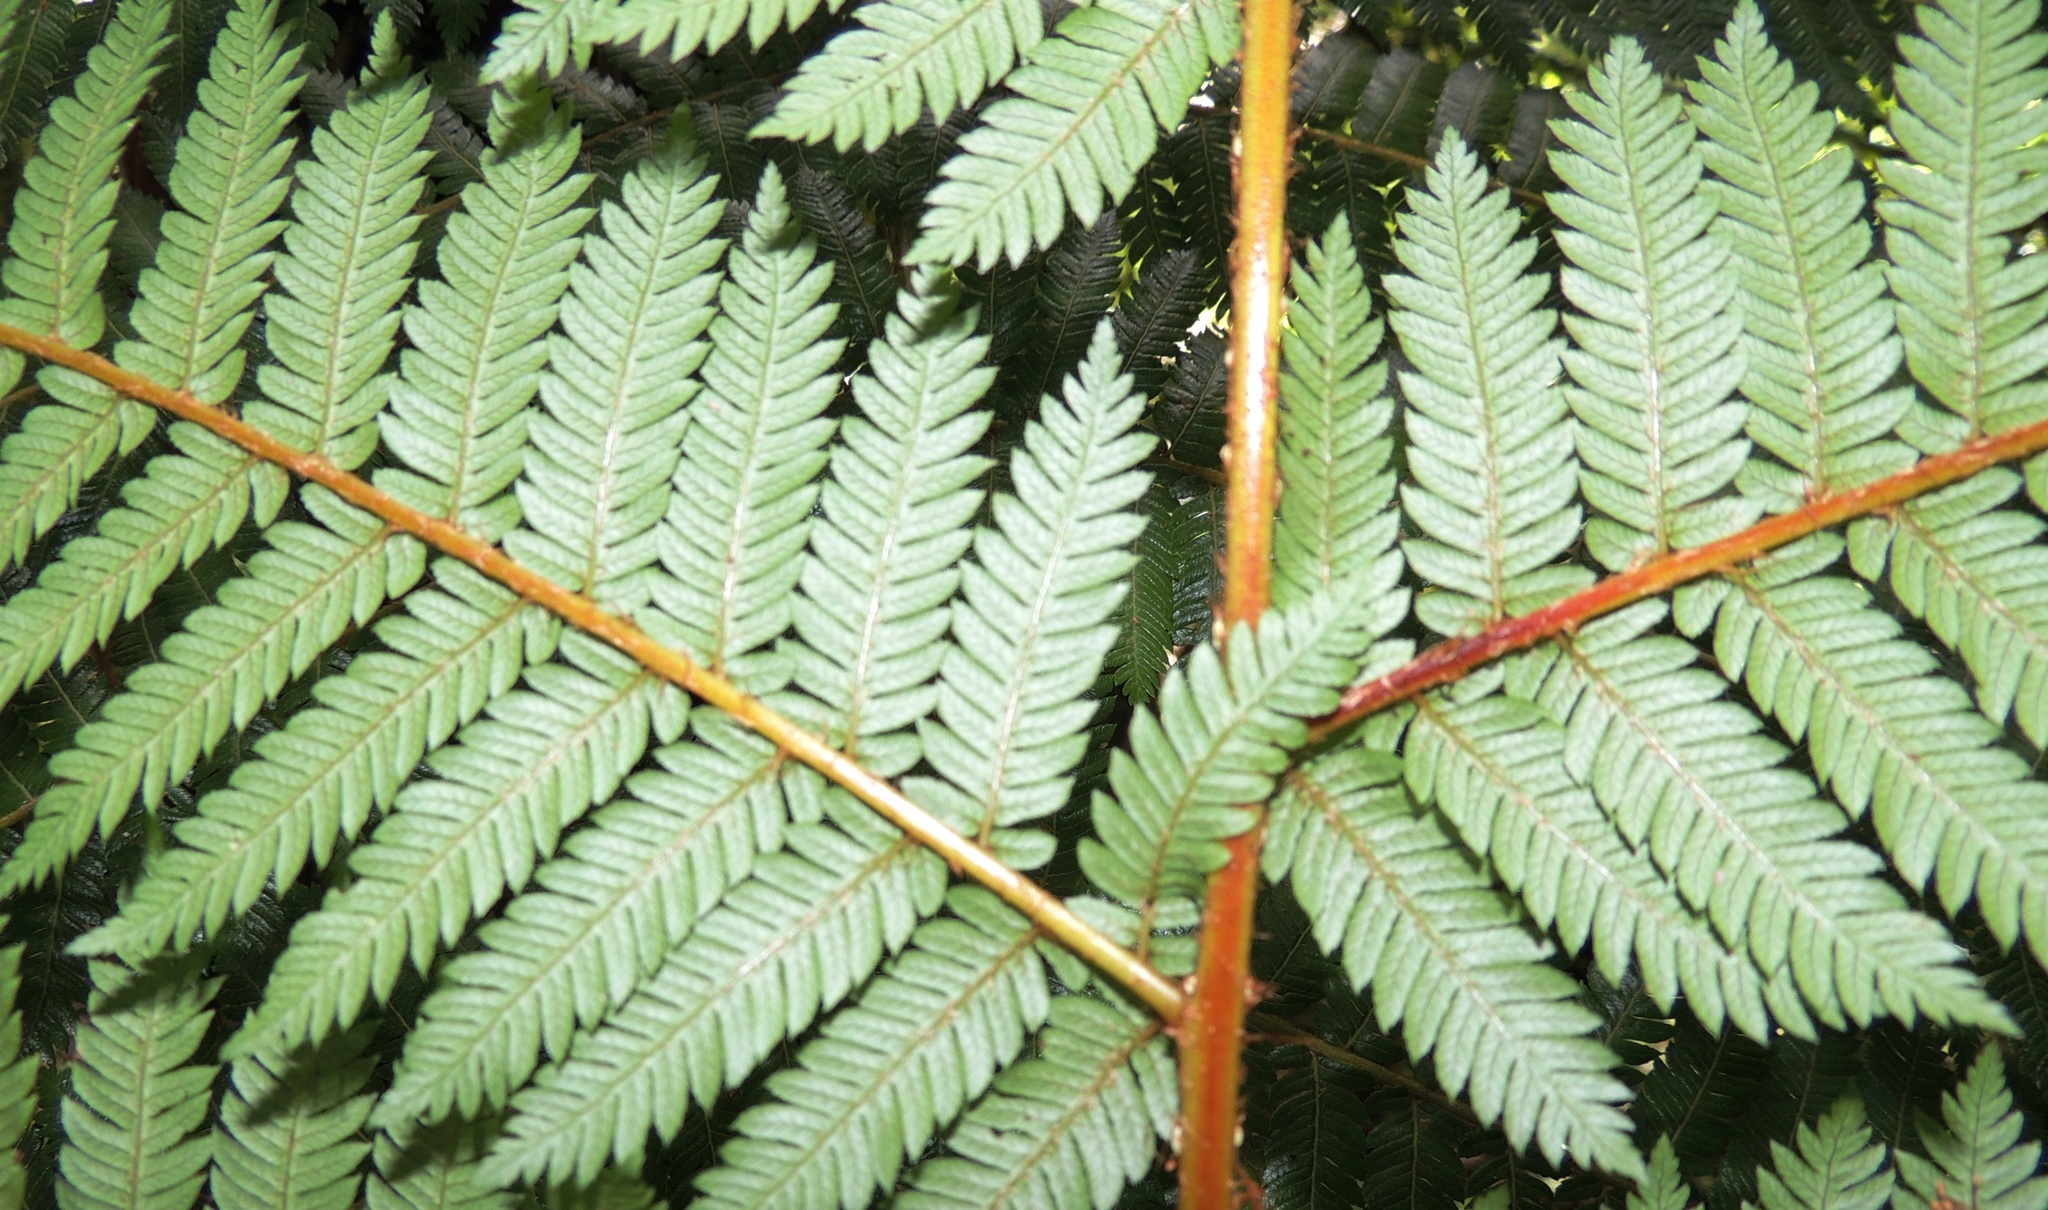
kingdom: Plantae
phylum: Tracheophyta
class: Polypodiopsida
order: Cyatheales
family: Cyatheaceae
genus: Alsophila
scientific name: Alsophila smithii
